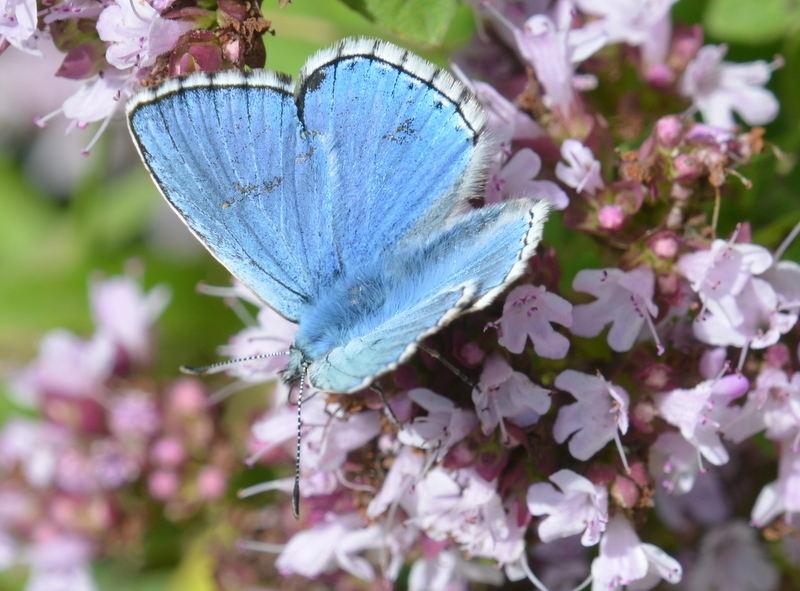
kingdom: Animalia
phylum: Arthropoda
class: Insecta
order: Lepidoptera
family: Lycaenidae
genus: Lysandra
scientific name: Lysandra bellargus
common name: Adonis blue
